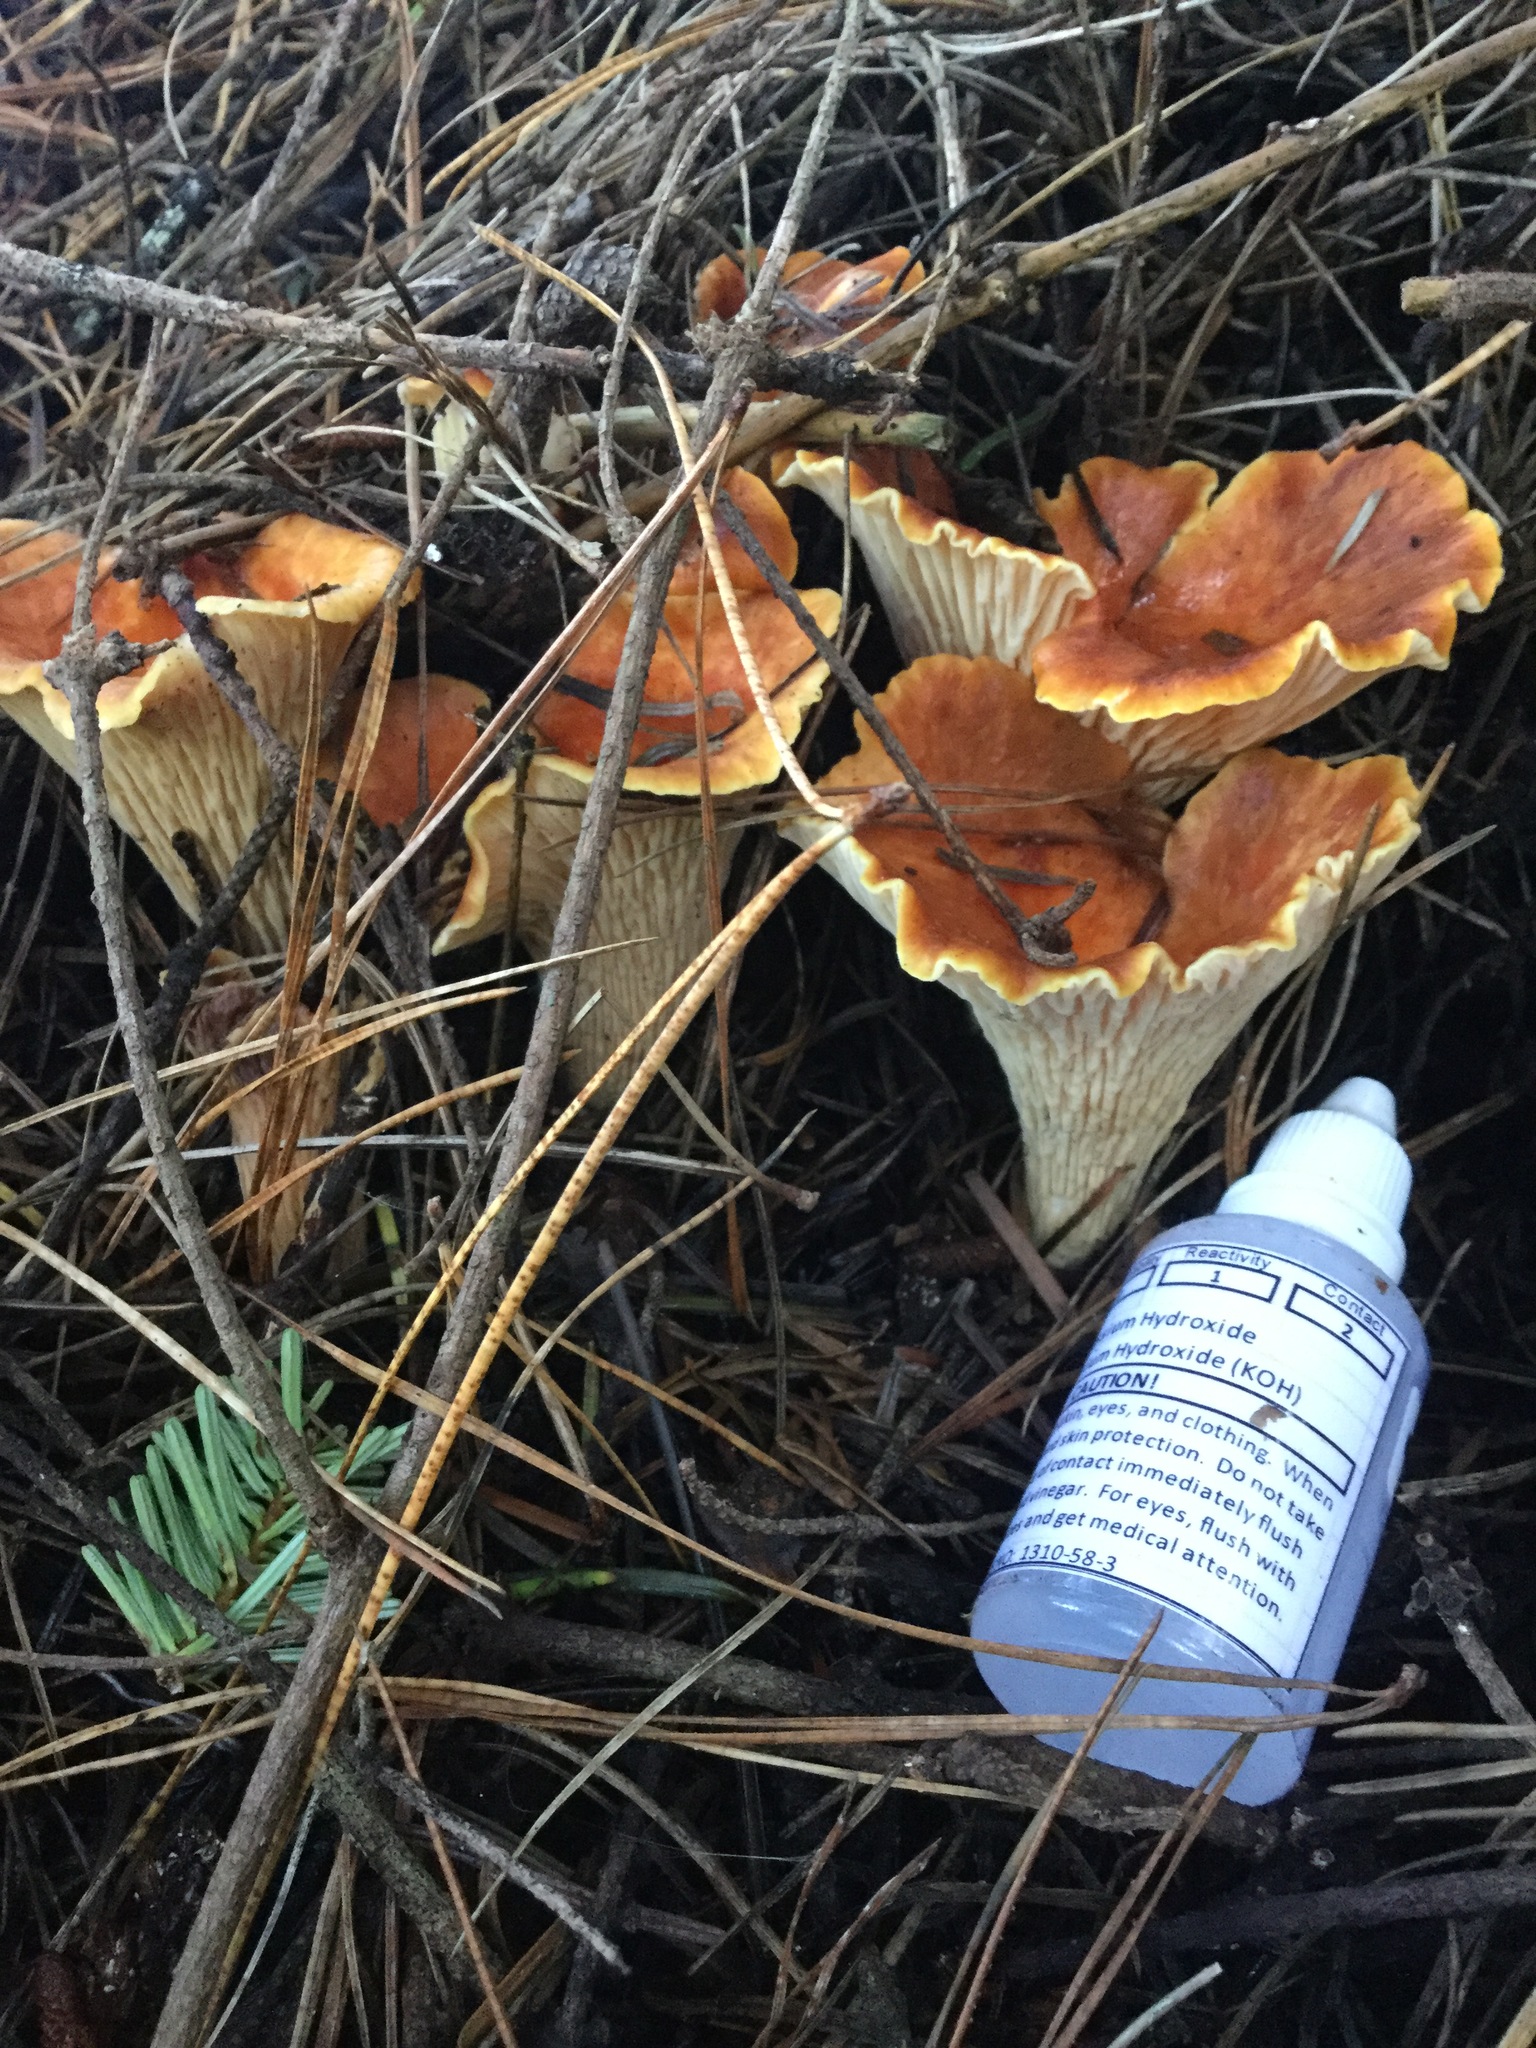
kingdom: Fungi
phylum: Basidiomycota
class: Agaricomycetes
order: Gomphales
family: Gomphaceae
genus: Turbinellus
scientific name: Turbinellus floccosus
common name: Scaly chanterelle
